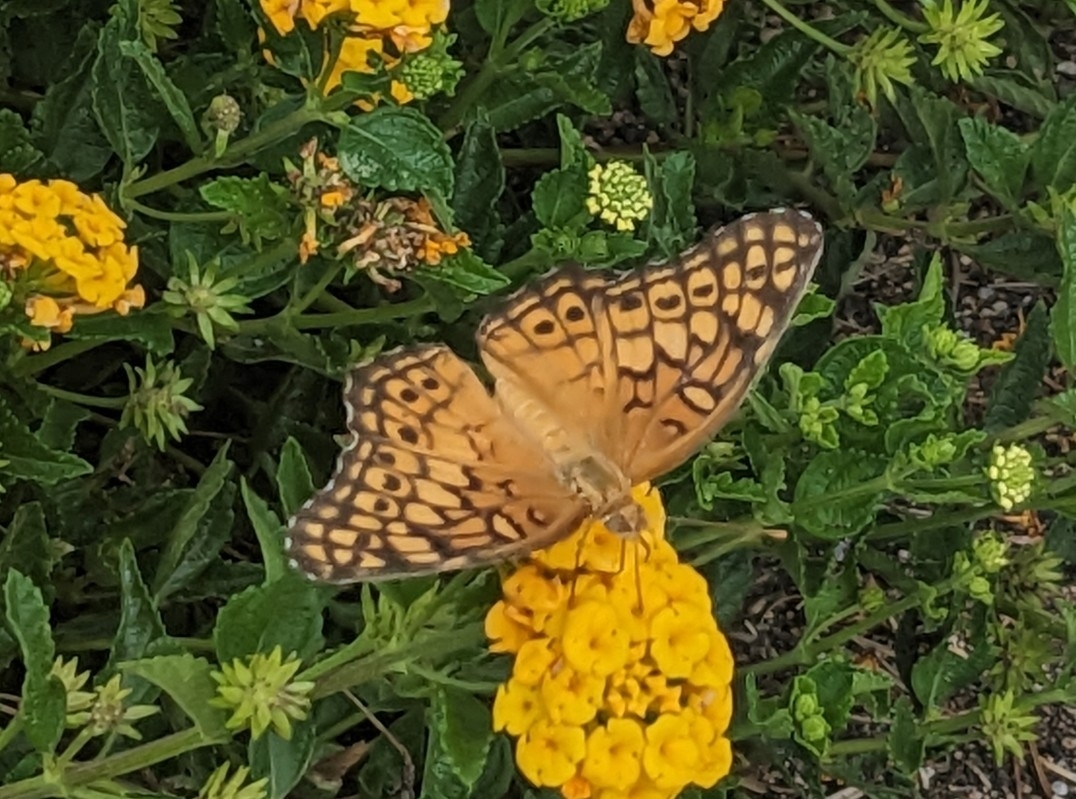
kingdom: Animalia
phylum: Arthropoda
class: Insecta
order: Lepidoptera
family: Nymphalidae
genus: Euptoieta
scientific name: Euptoieta claudia
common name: Variegated fritillary
